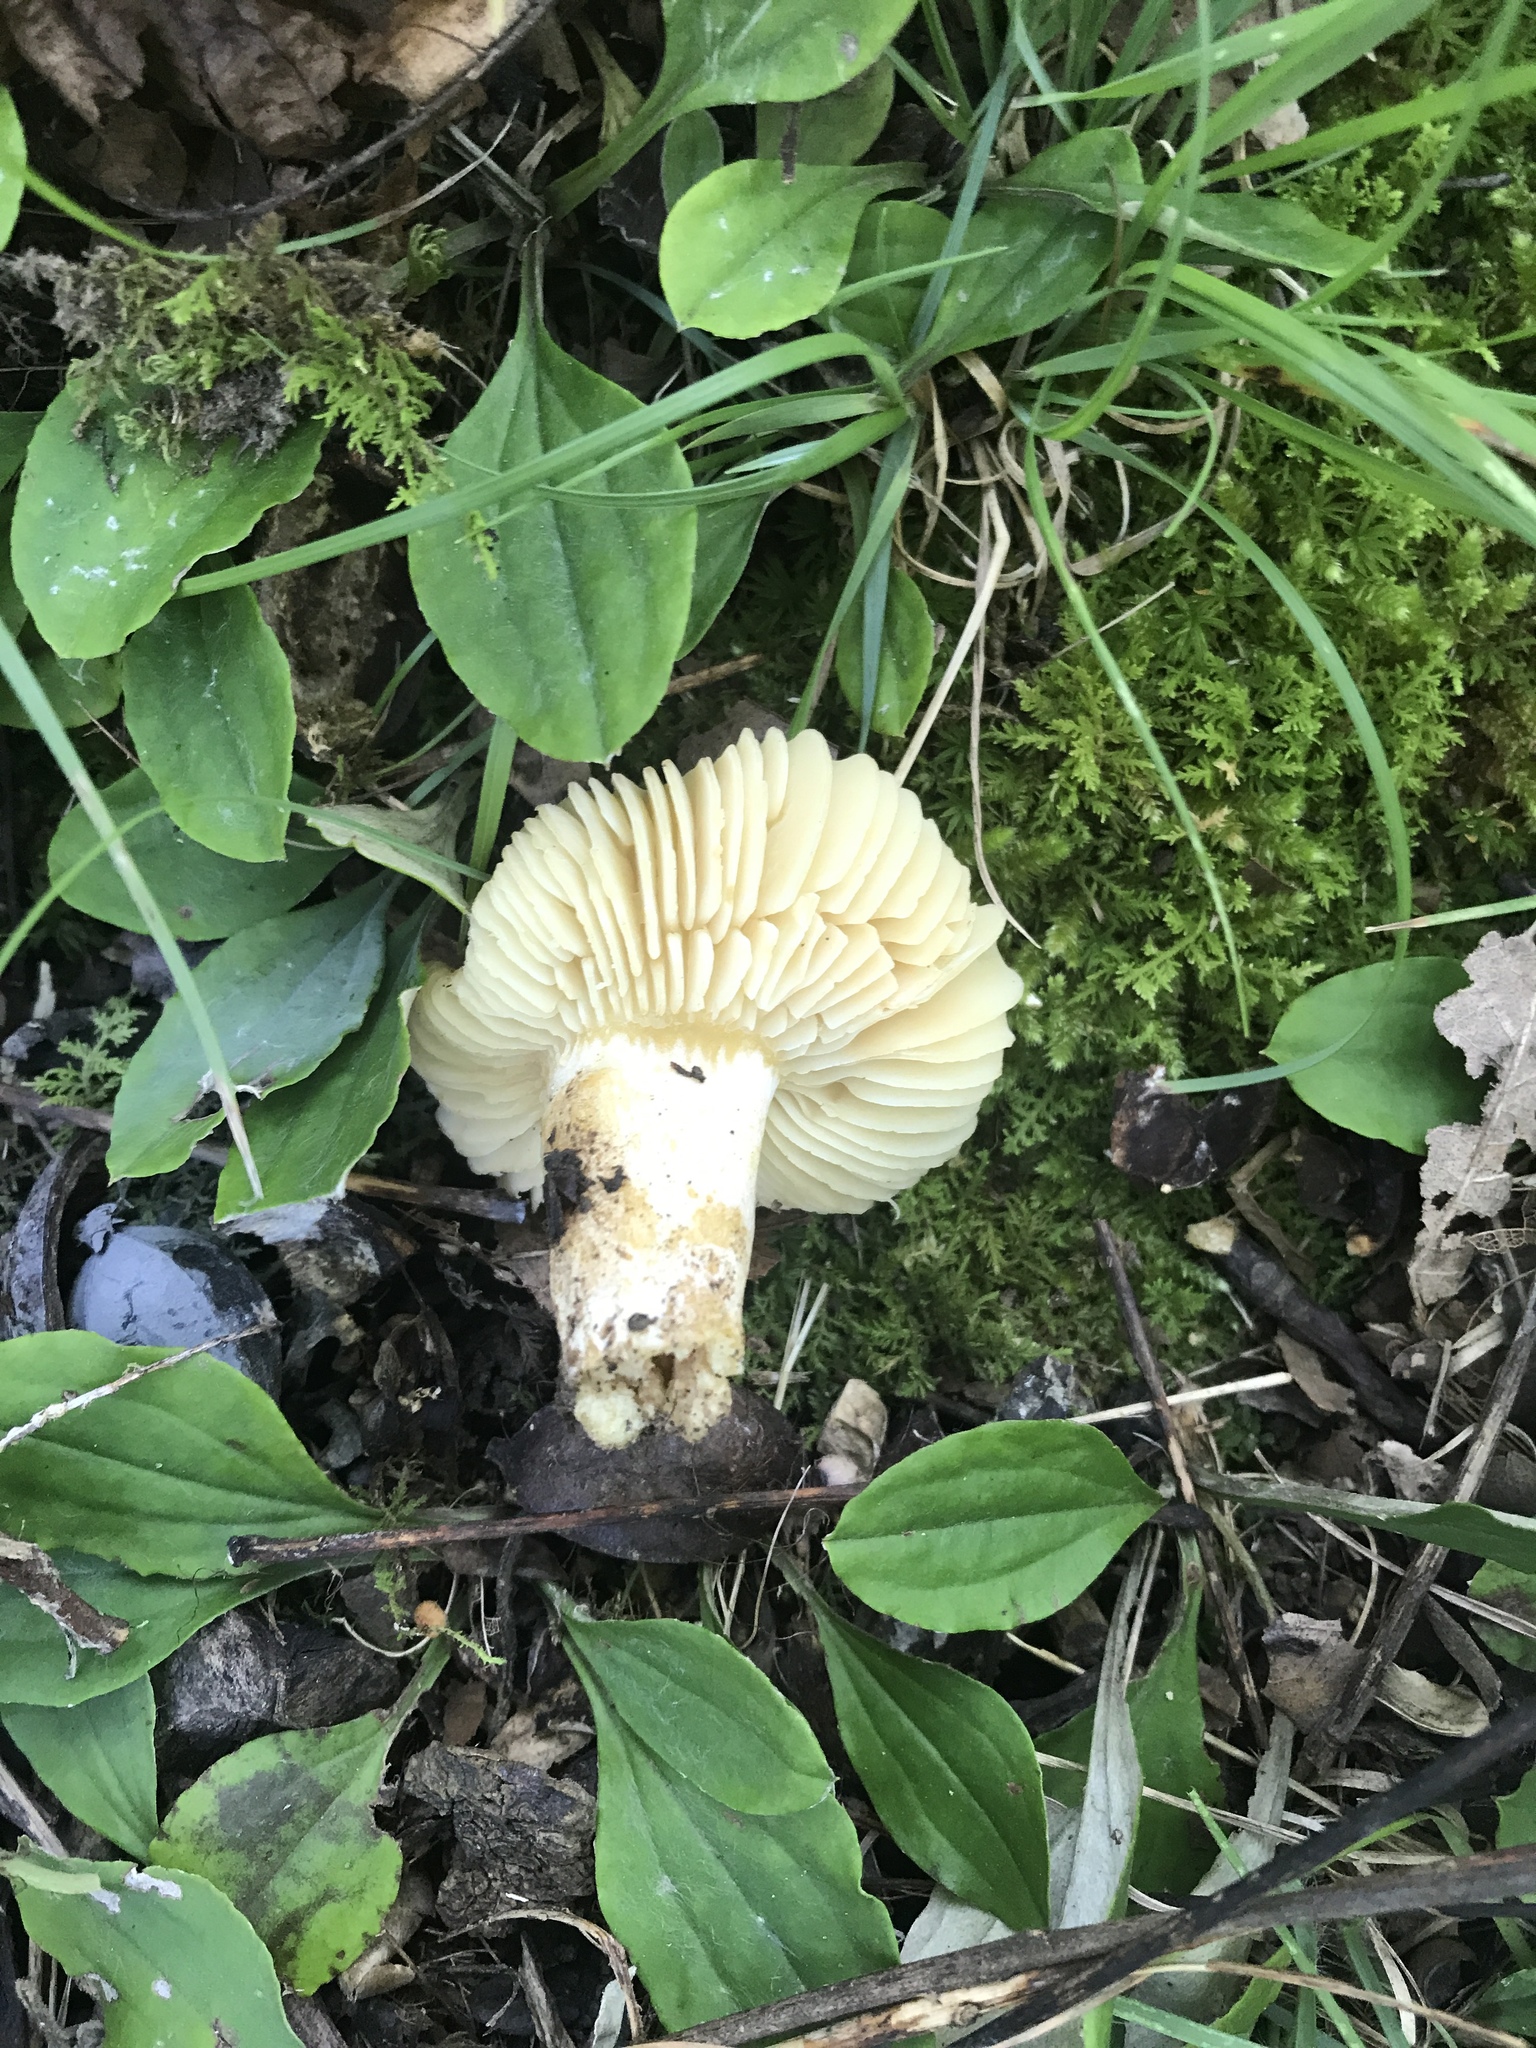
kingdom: Fungi
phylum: Basidiomycota
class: Agaricomycetes
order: Agaricales
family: Hygrophoraceae
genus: Hygrocybe
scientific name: Hygrocybe chlorophana
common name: Golden waxcap
